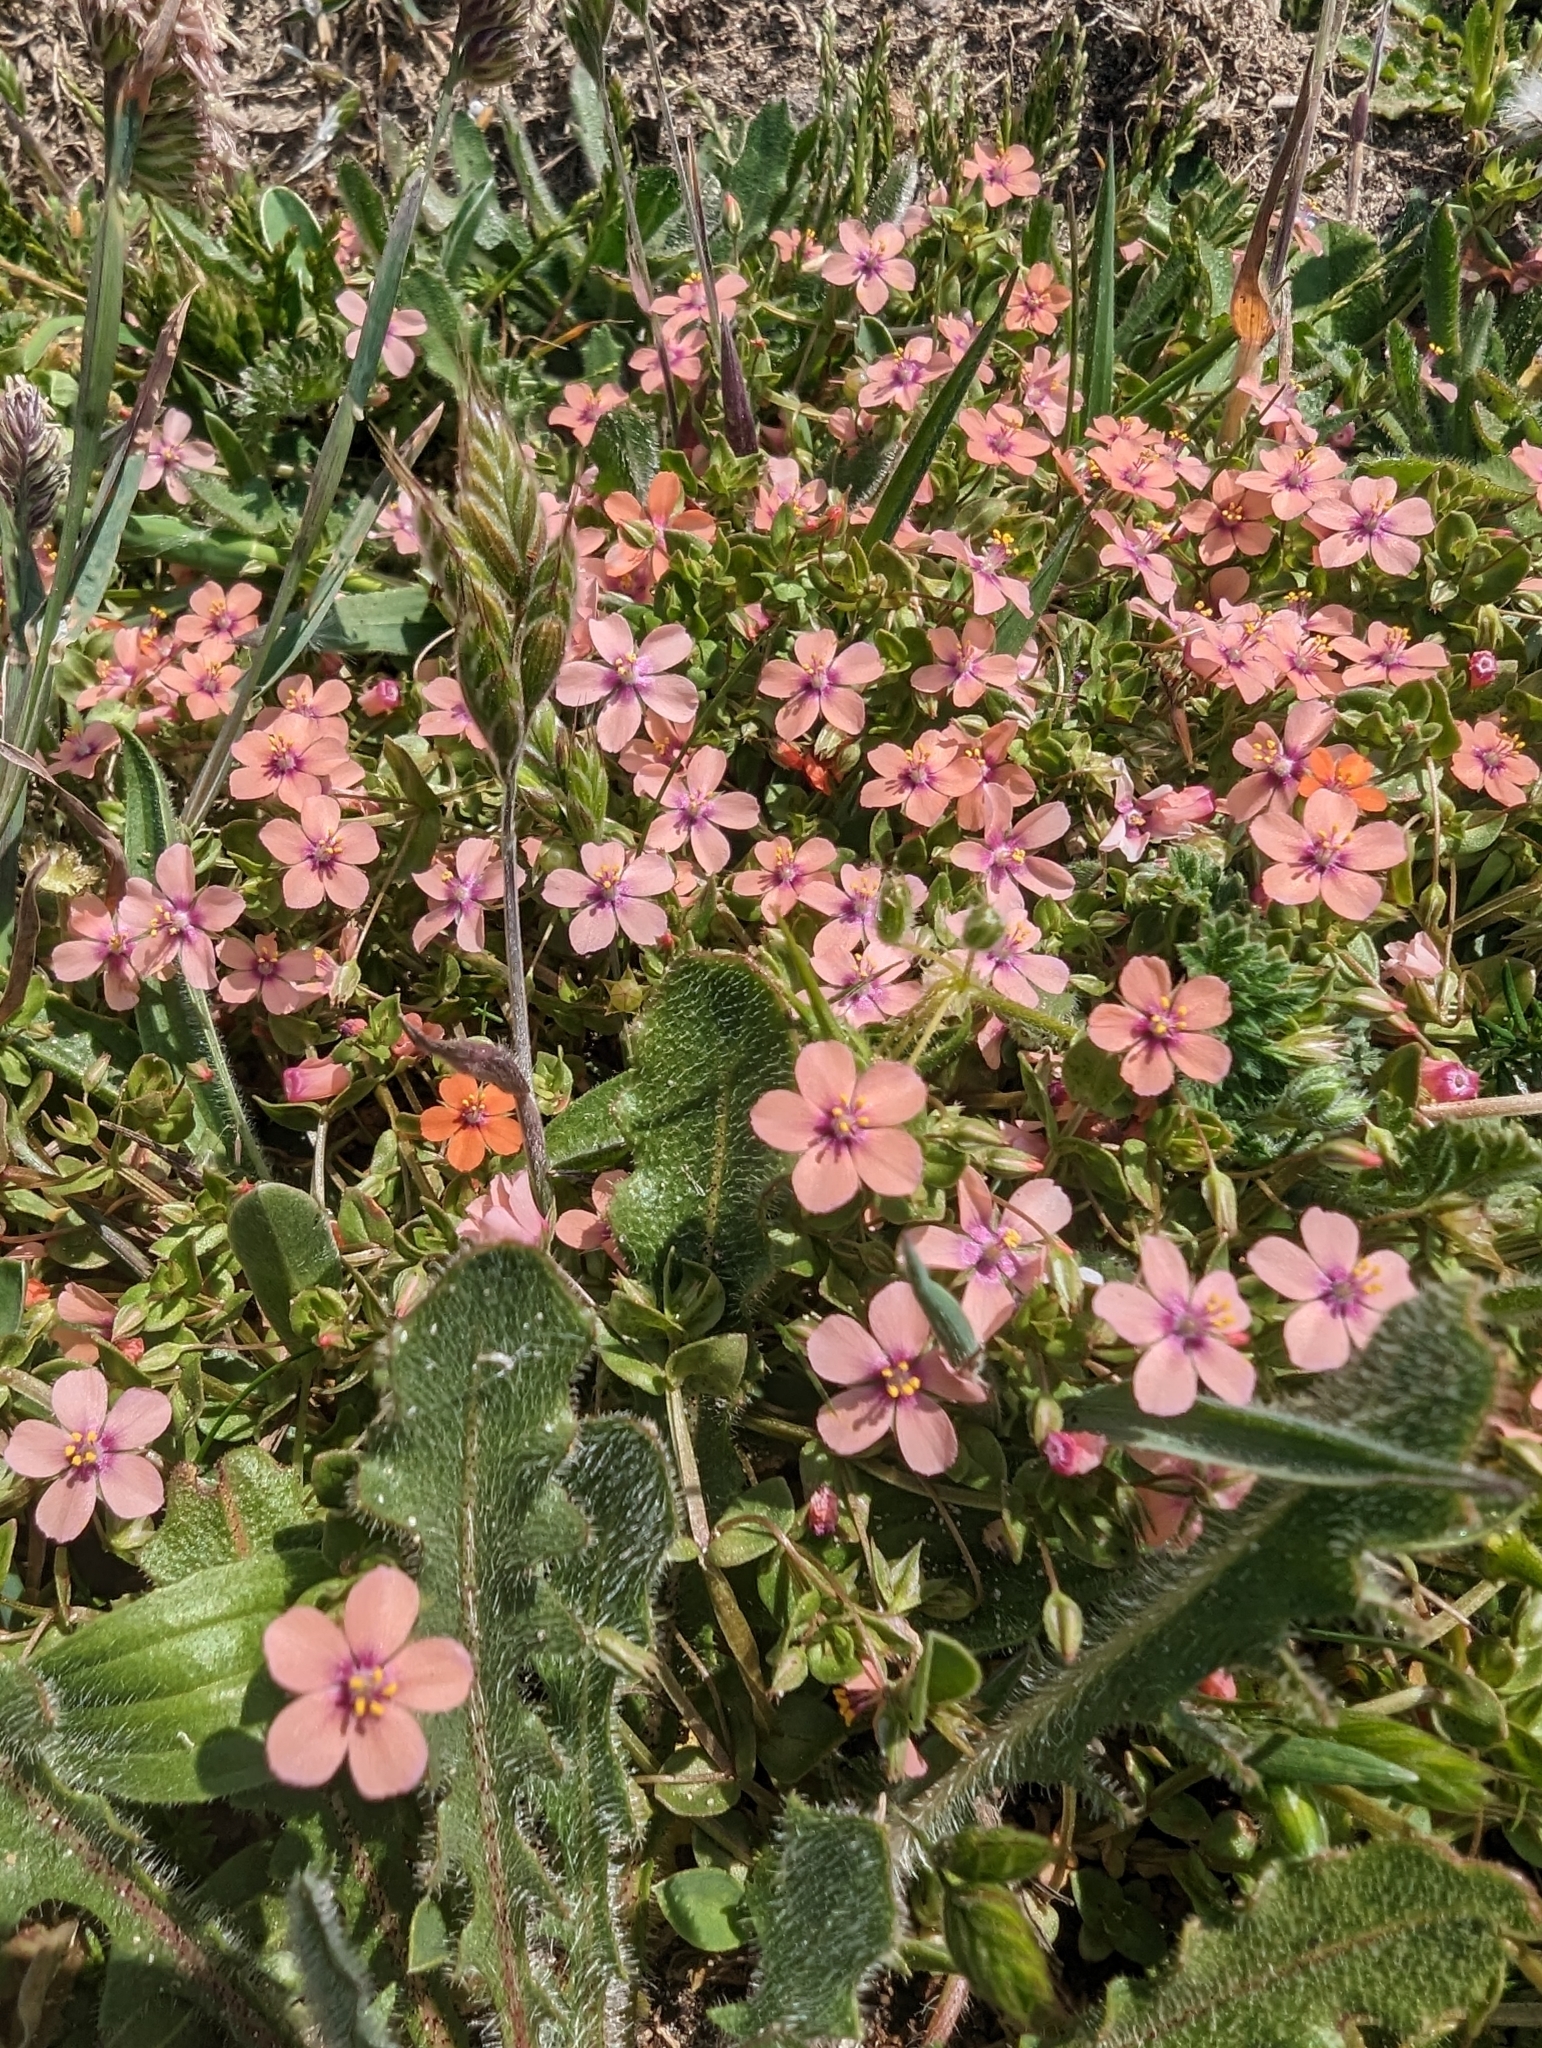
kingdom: Plantae
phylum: Tracheophyta
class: Magnoliopsida
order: Ericales
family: Primulaceae
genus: Lysimachia
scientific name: Lysimachia arvensis
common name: Scarlet pimpernel
